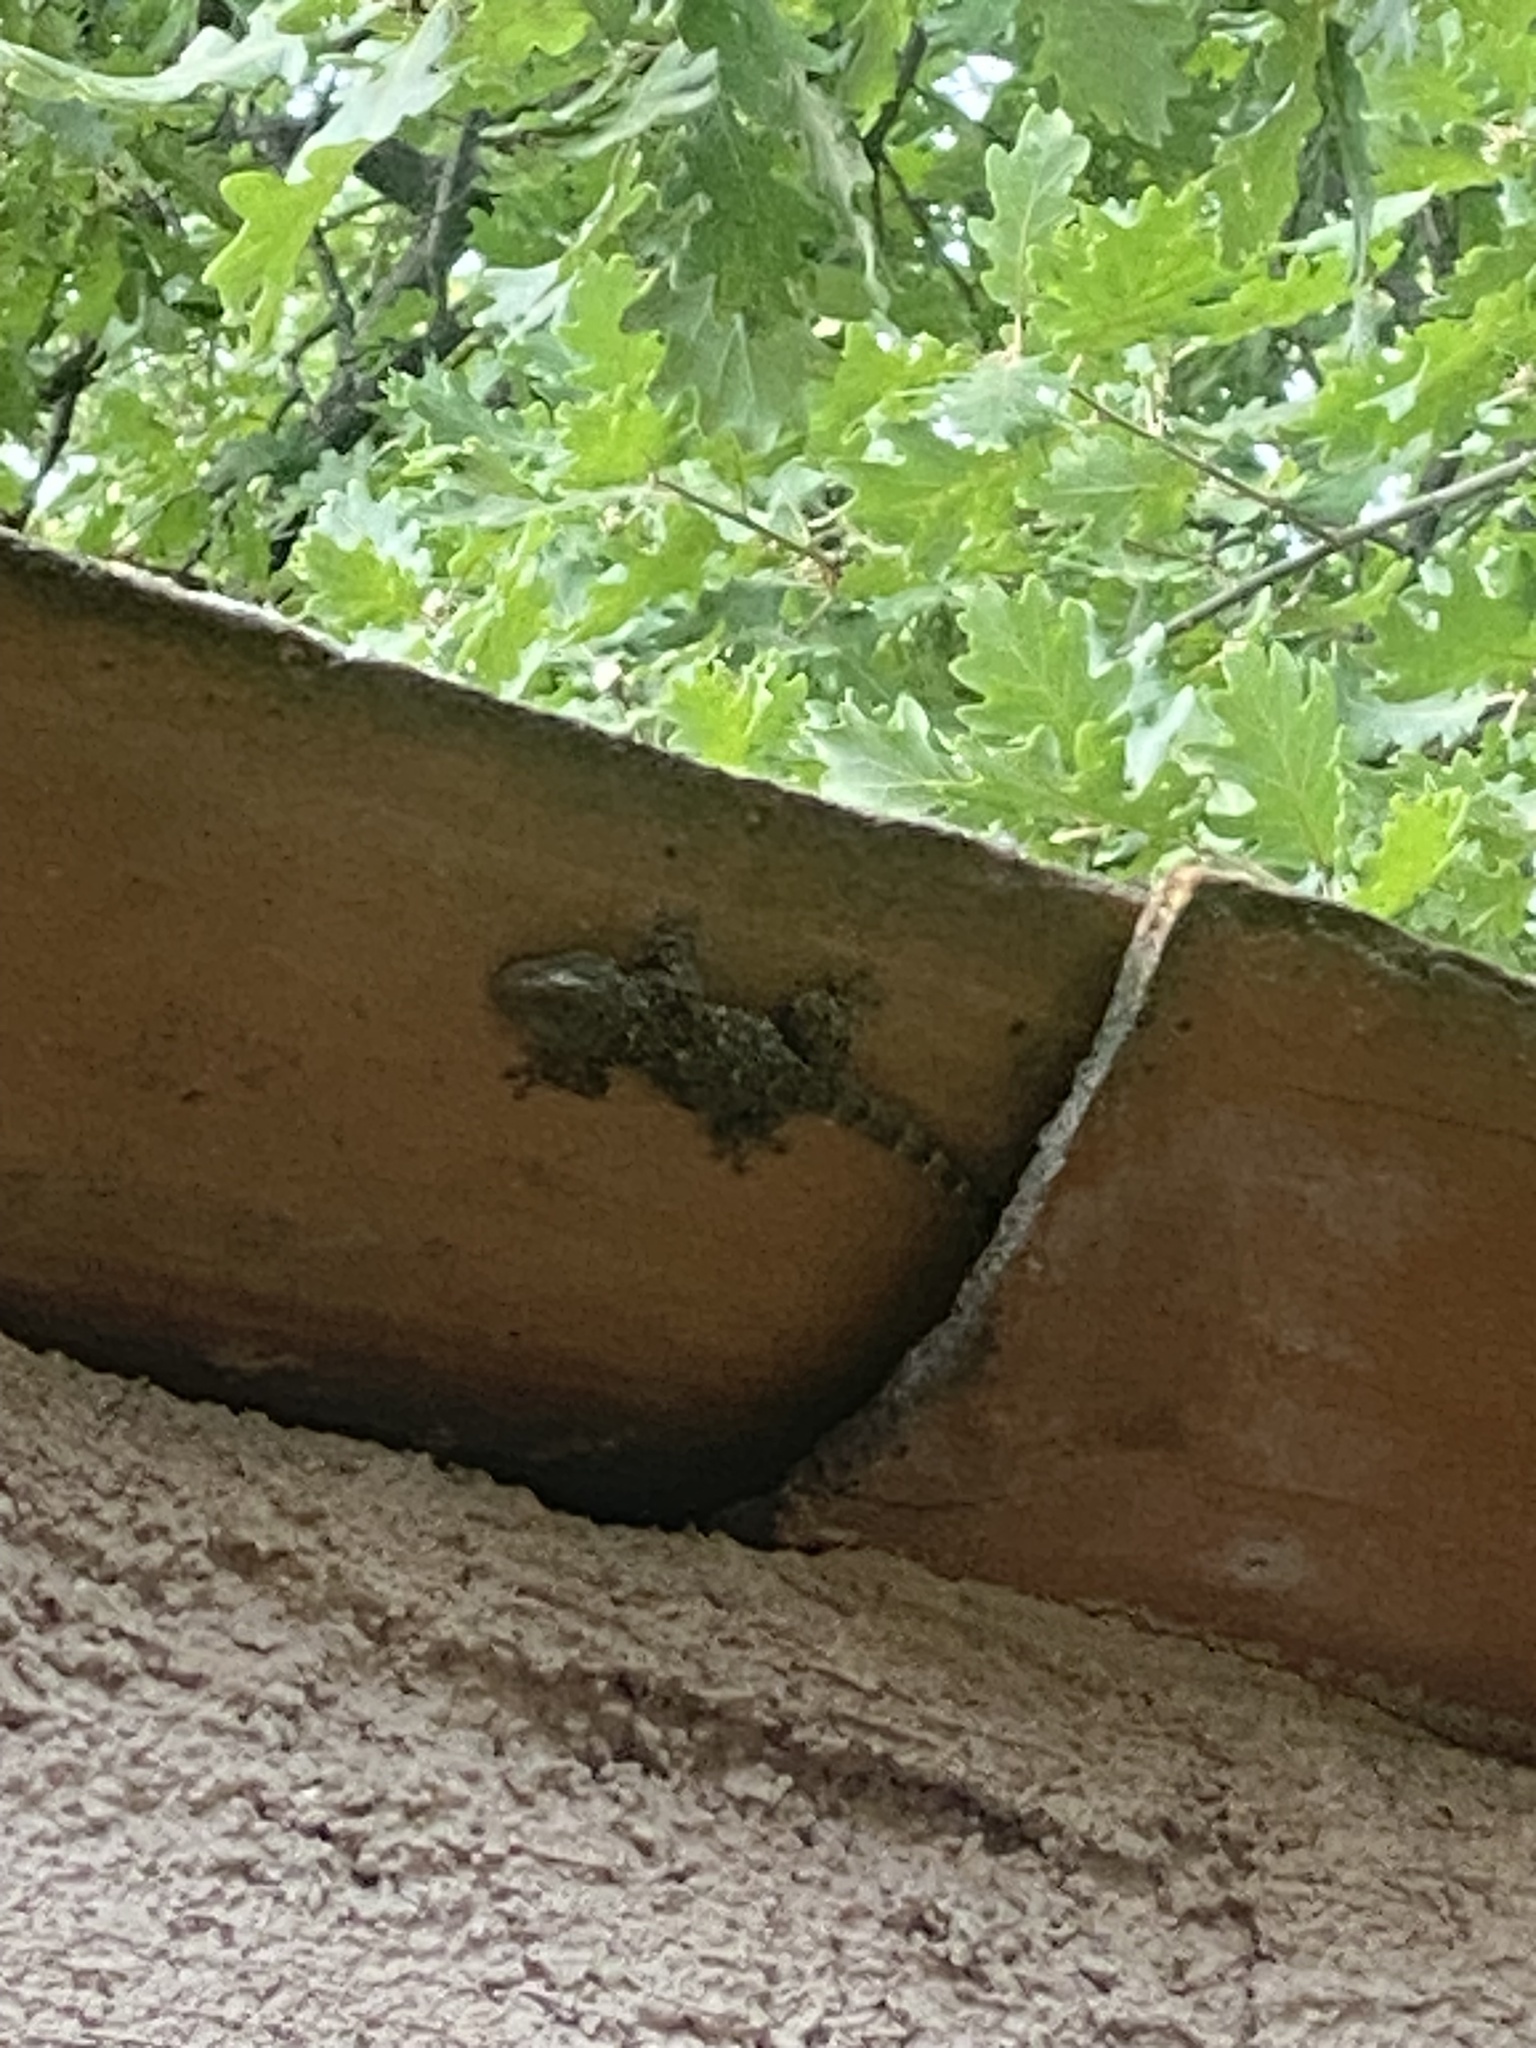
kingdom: Animalia
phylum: Chordata
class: Squamata
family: Phyllodactylidae
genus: Tarentola
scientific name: Tarentola mauritanica
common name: Moorish gecko
